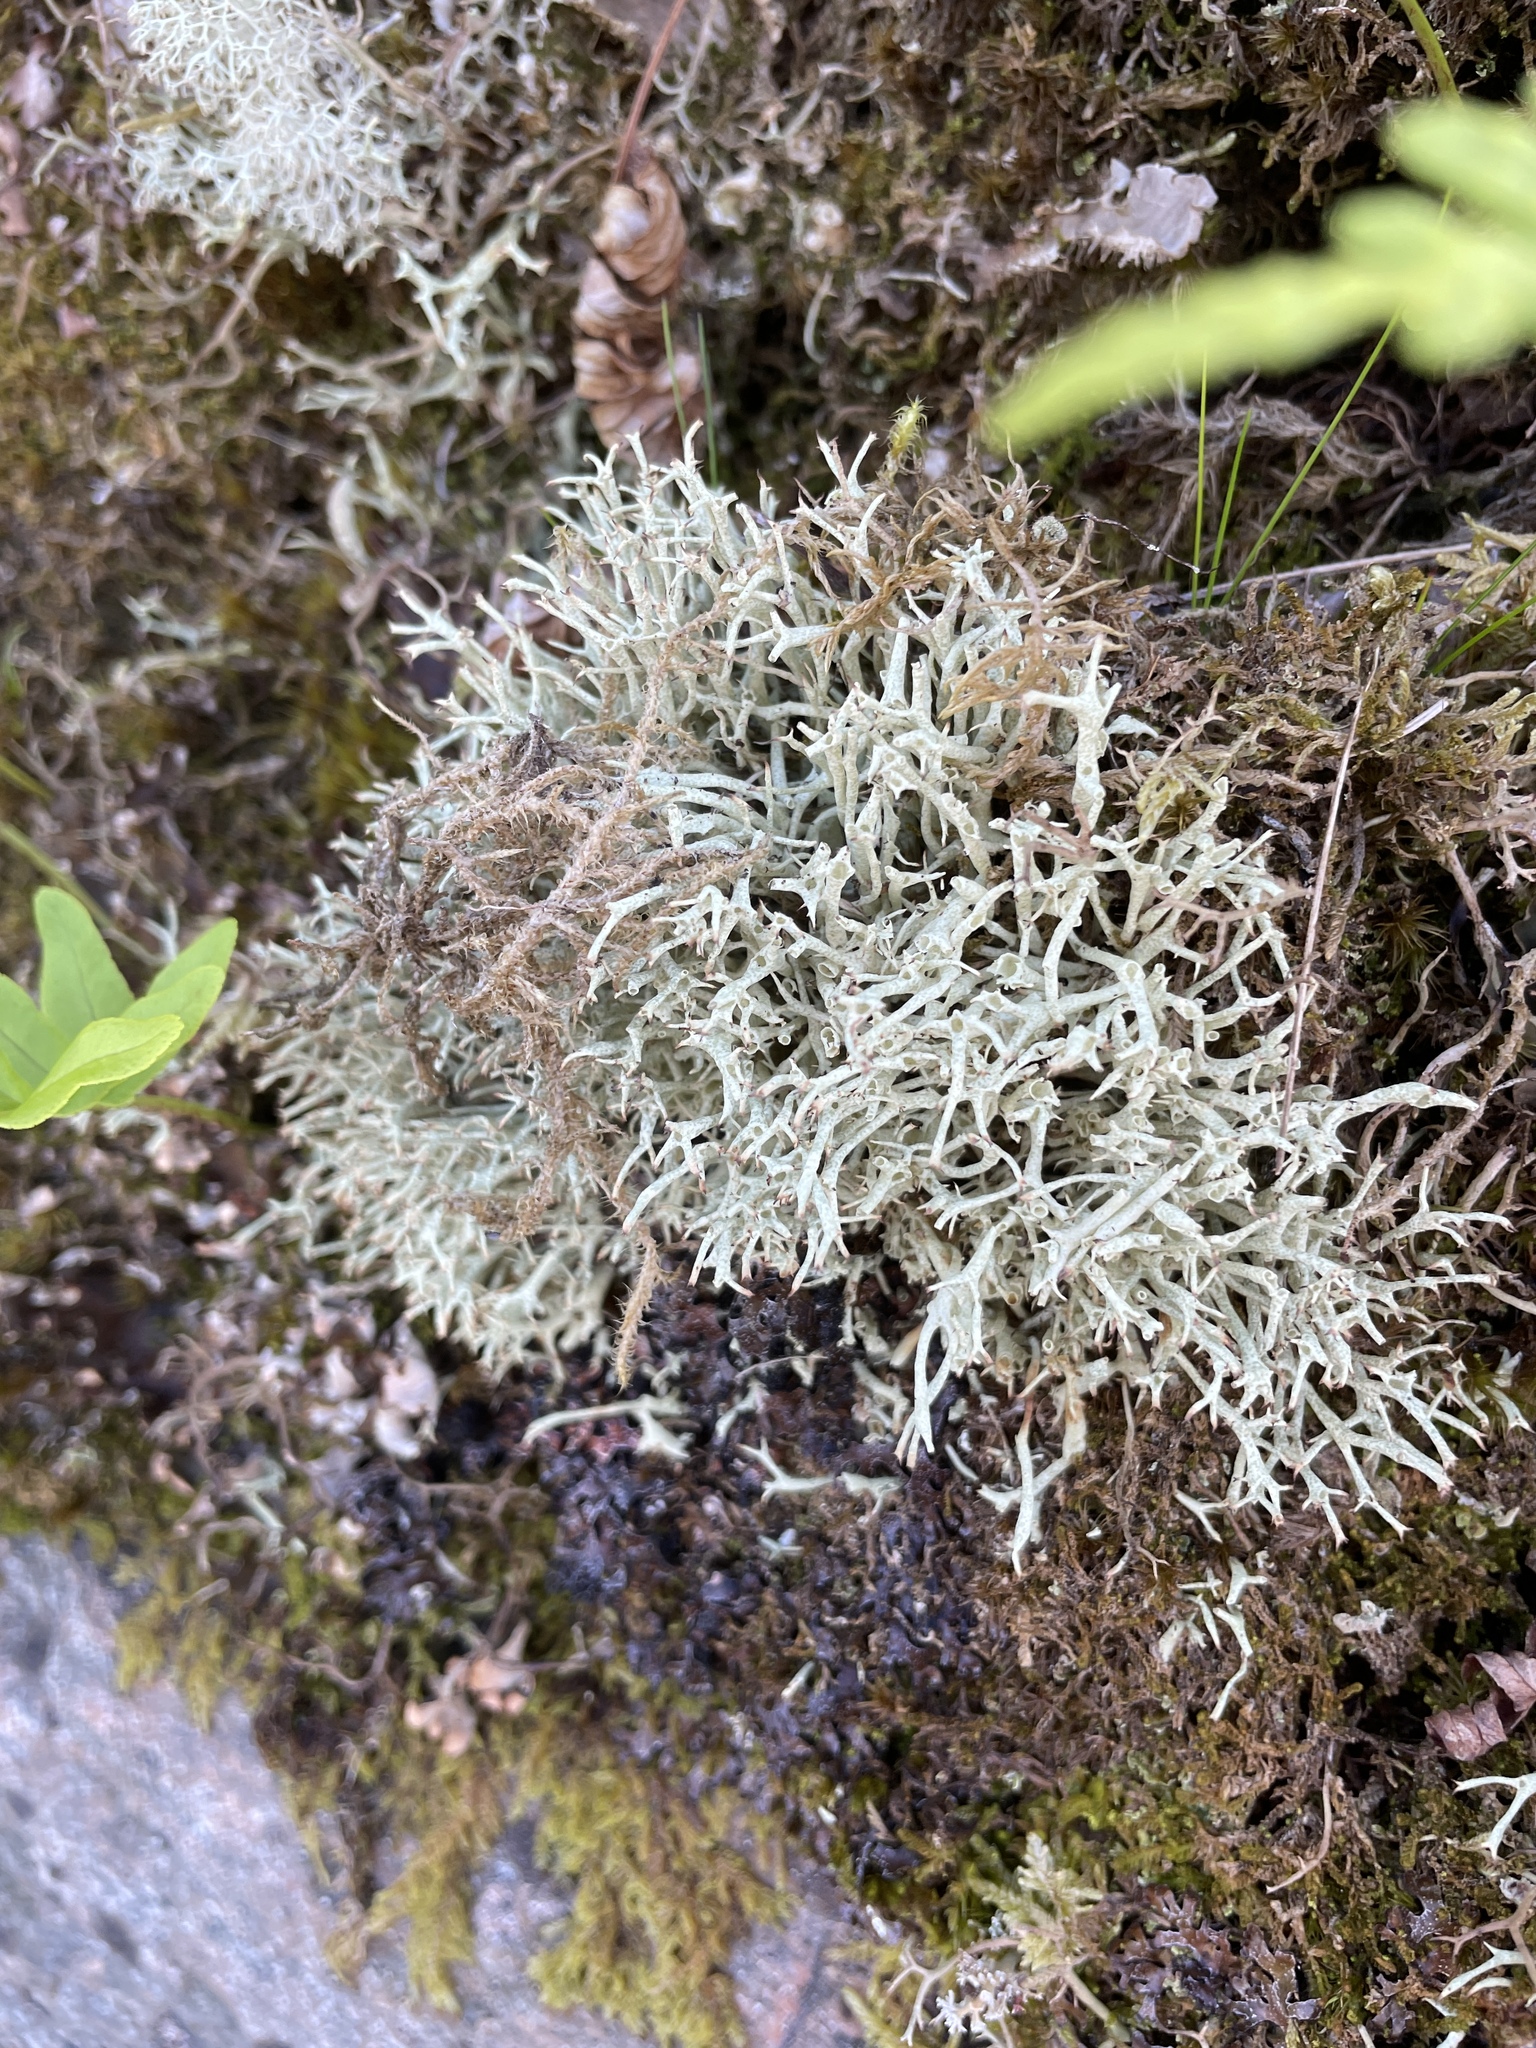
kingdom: Fungi
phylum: Ascomycota
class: Lecanoromycetes
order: Lecanorales
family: Cladoniaceae
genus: Cladonia
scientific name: Cladonia uncialis
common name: Thorn lichen
